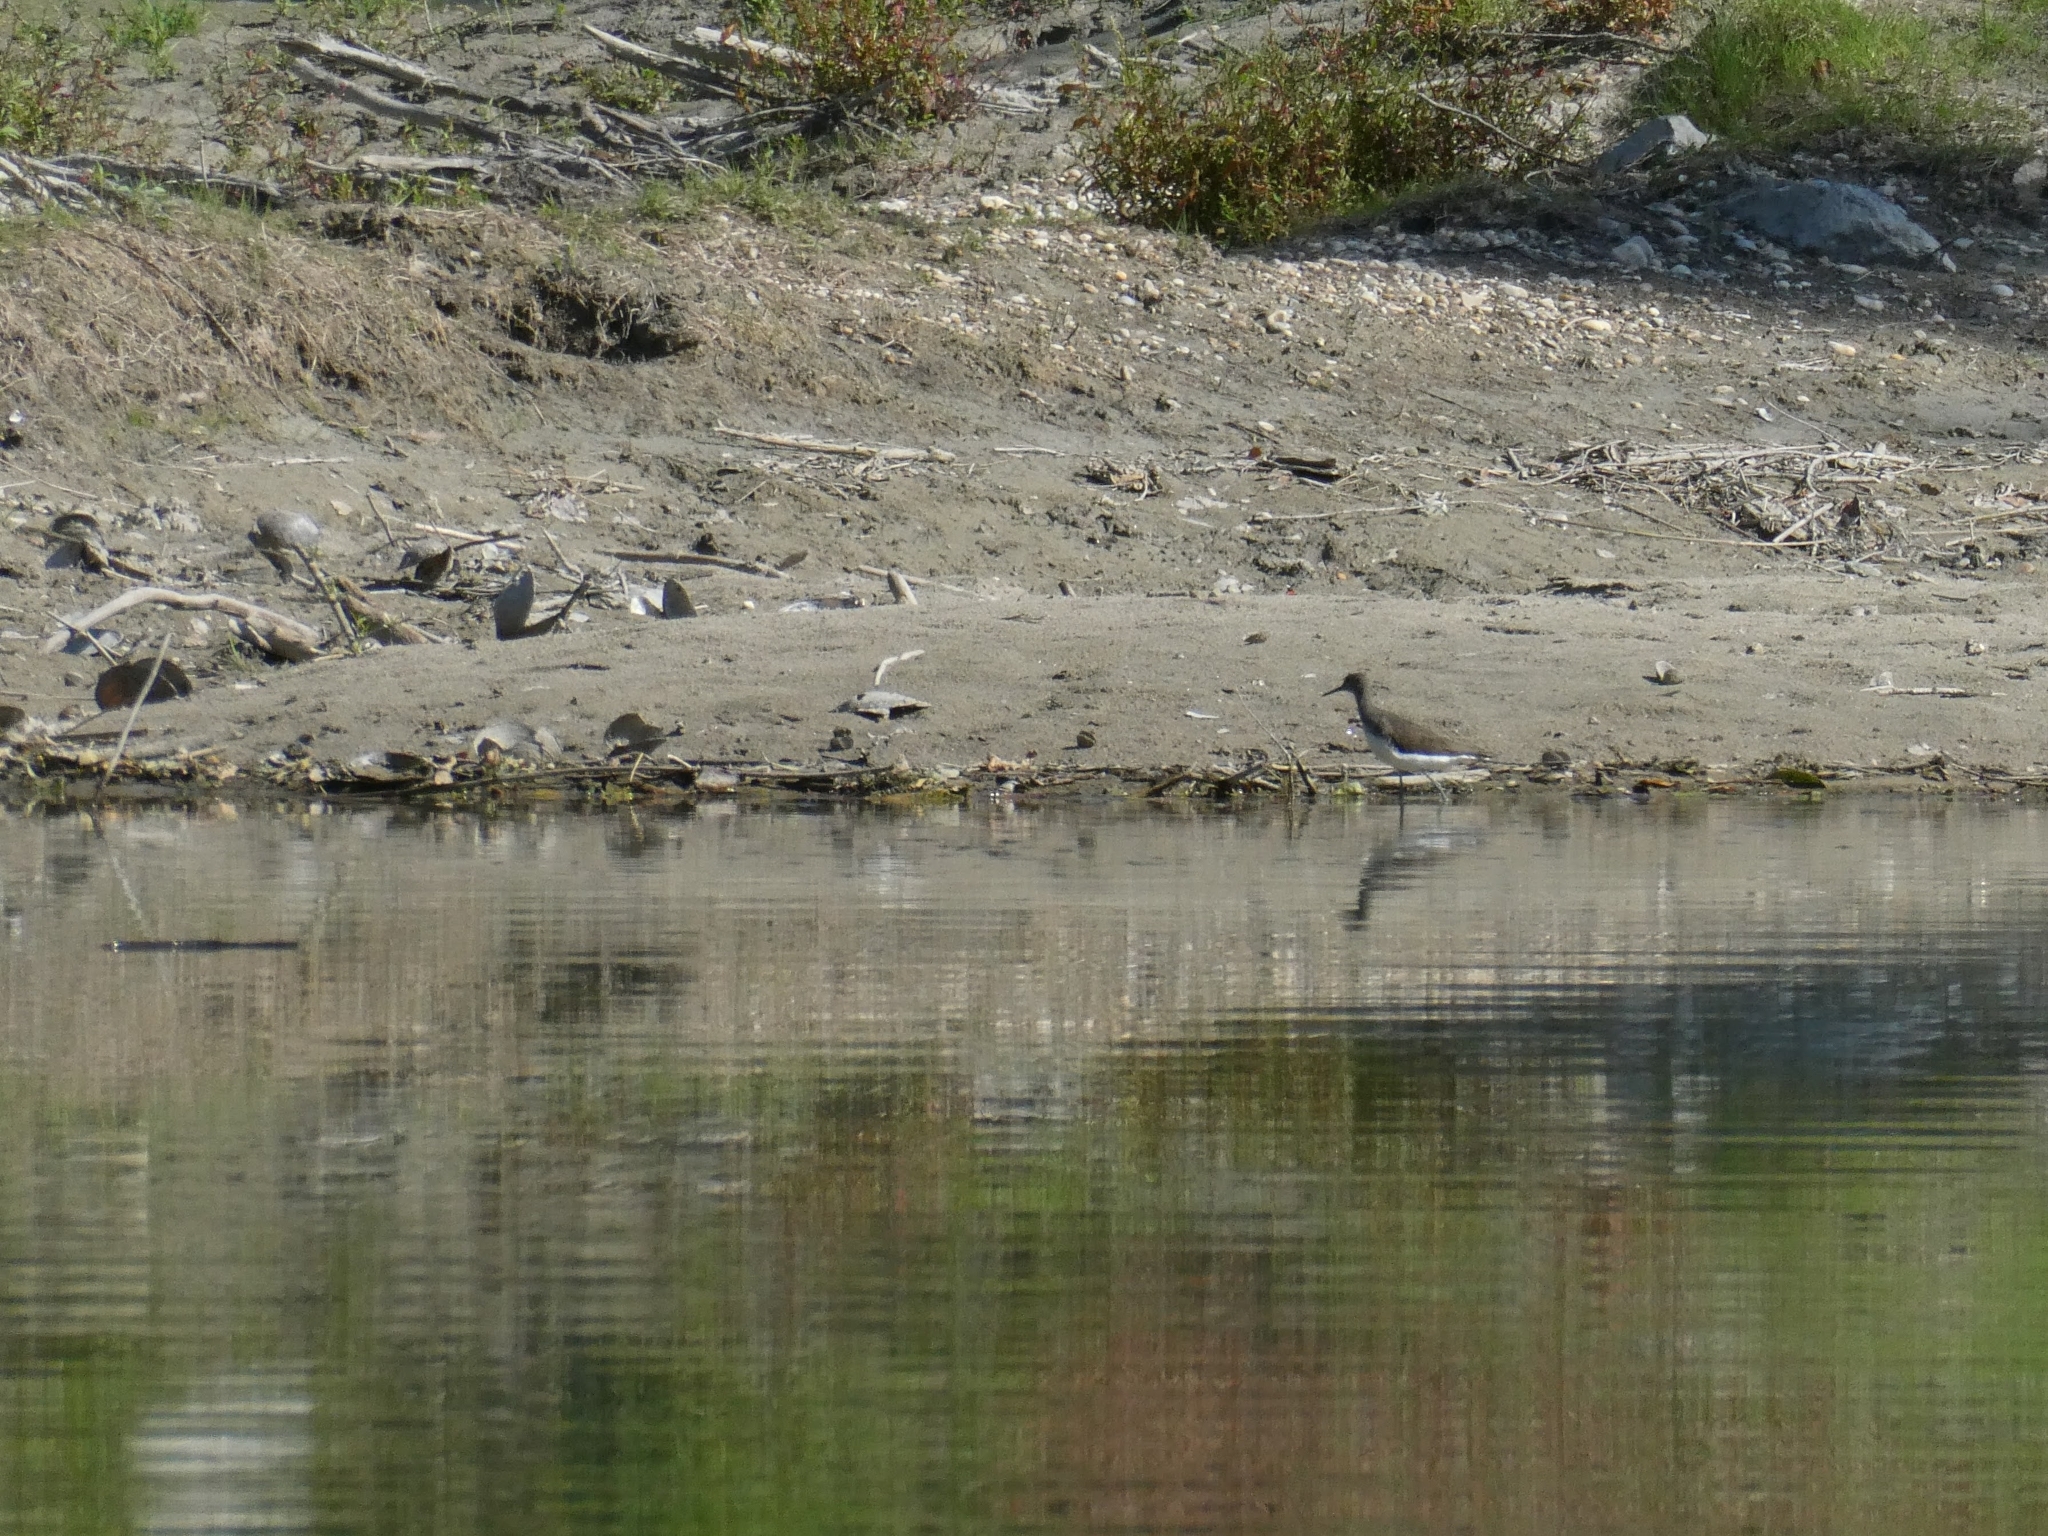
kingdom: Animalia
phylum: Chordata
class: Aves
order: Charadriiformes
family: Scolopacidae
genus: Tringa
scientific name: Tringa ochropus
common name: Green sandpiper
